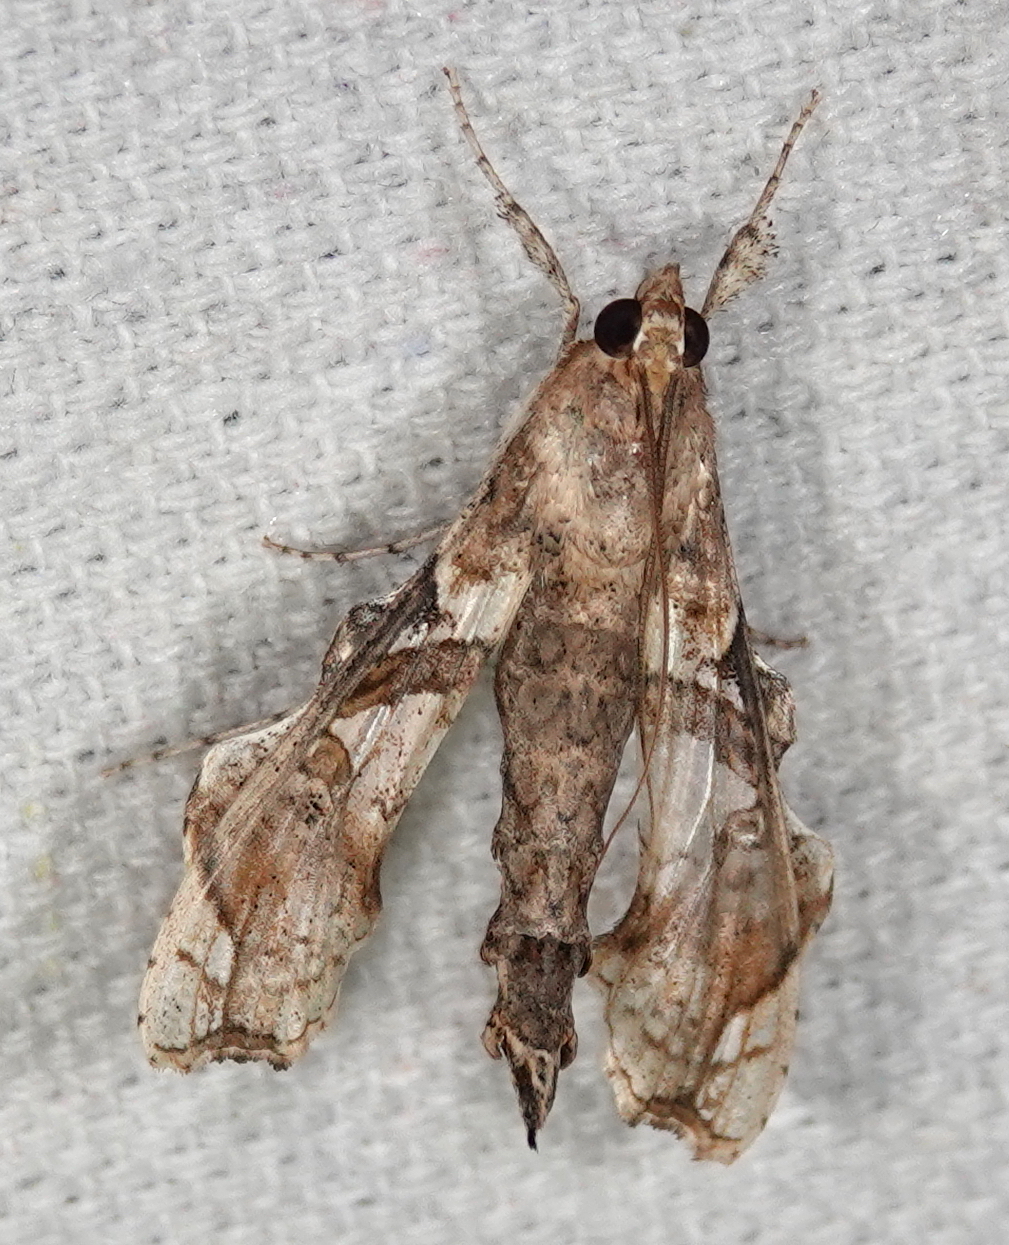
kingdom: Animalia
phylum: Arthropoda
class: Insecta
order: Lepidoptera
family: Crambidae
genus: Terastia
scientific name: Terastia meticulosalis
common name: Moth
